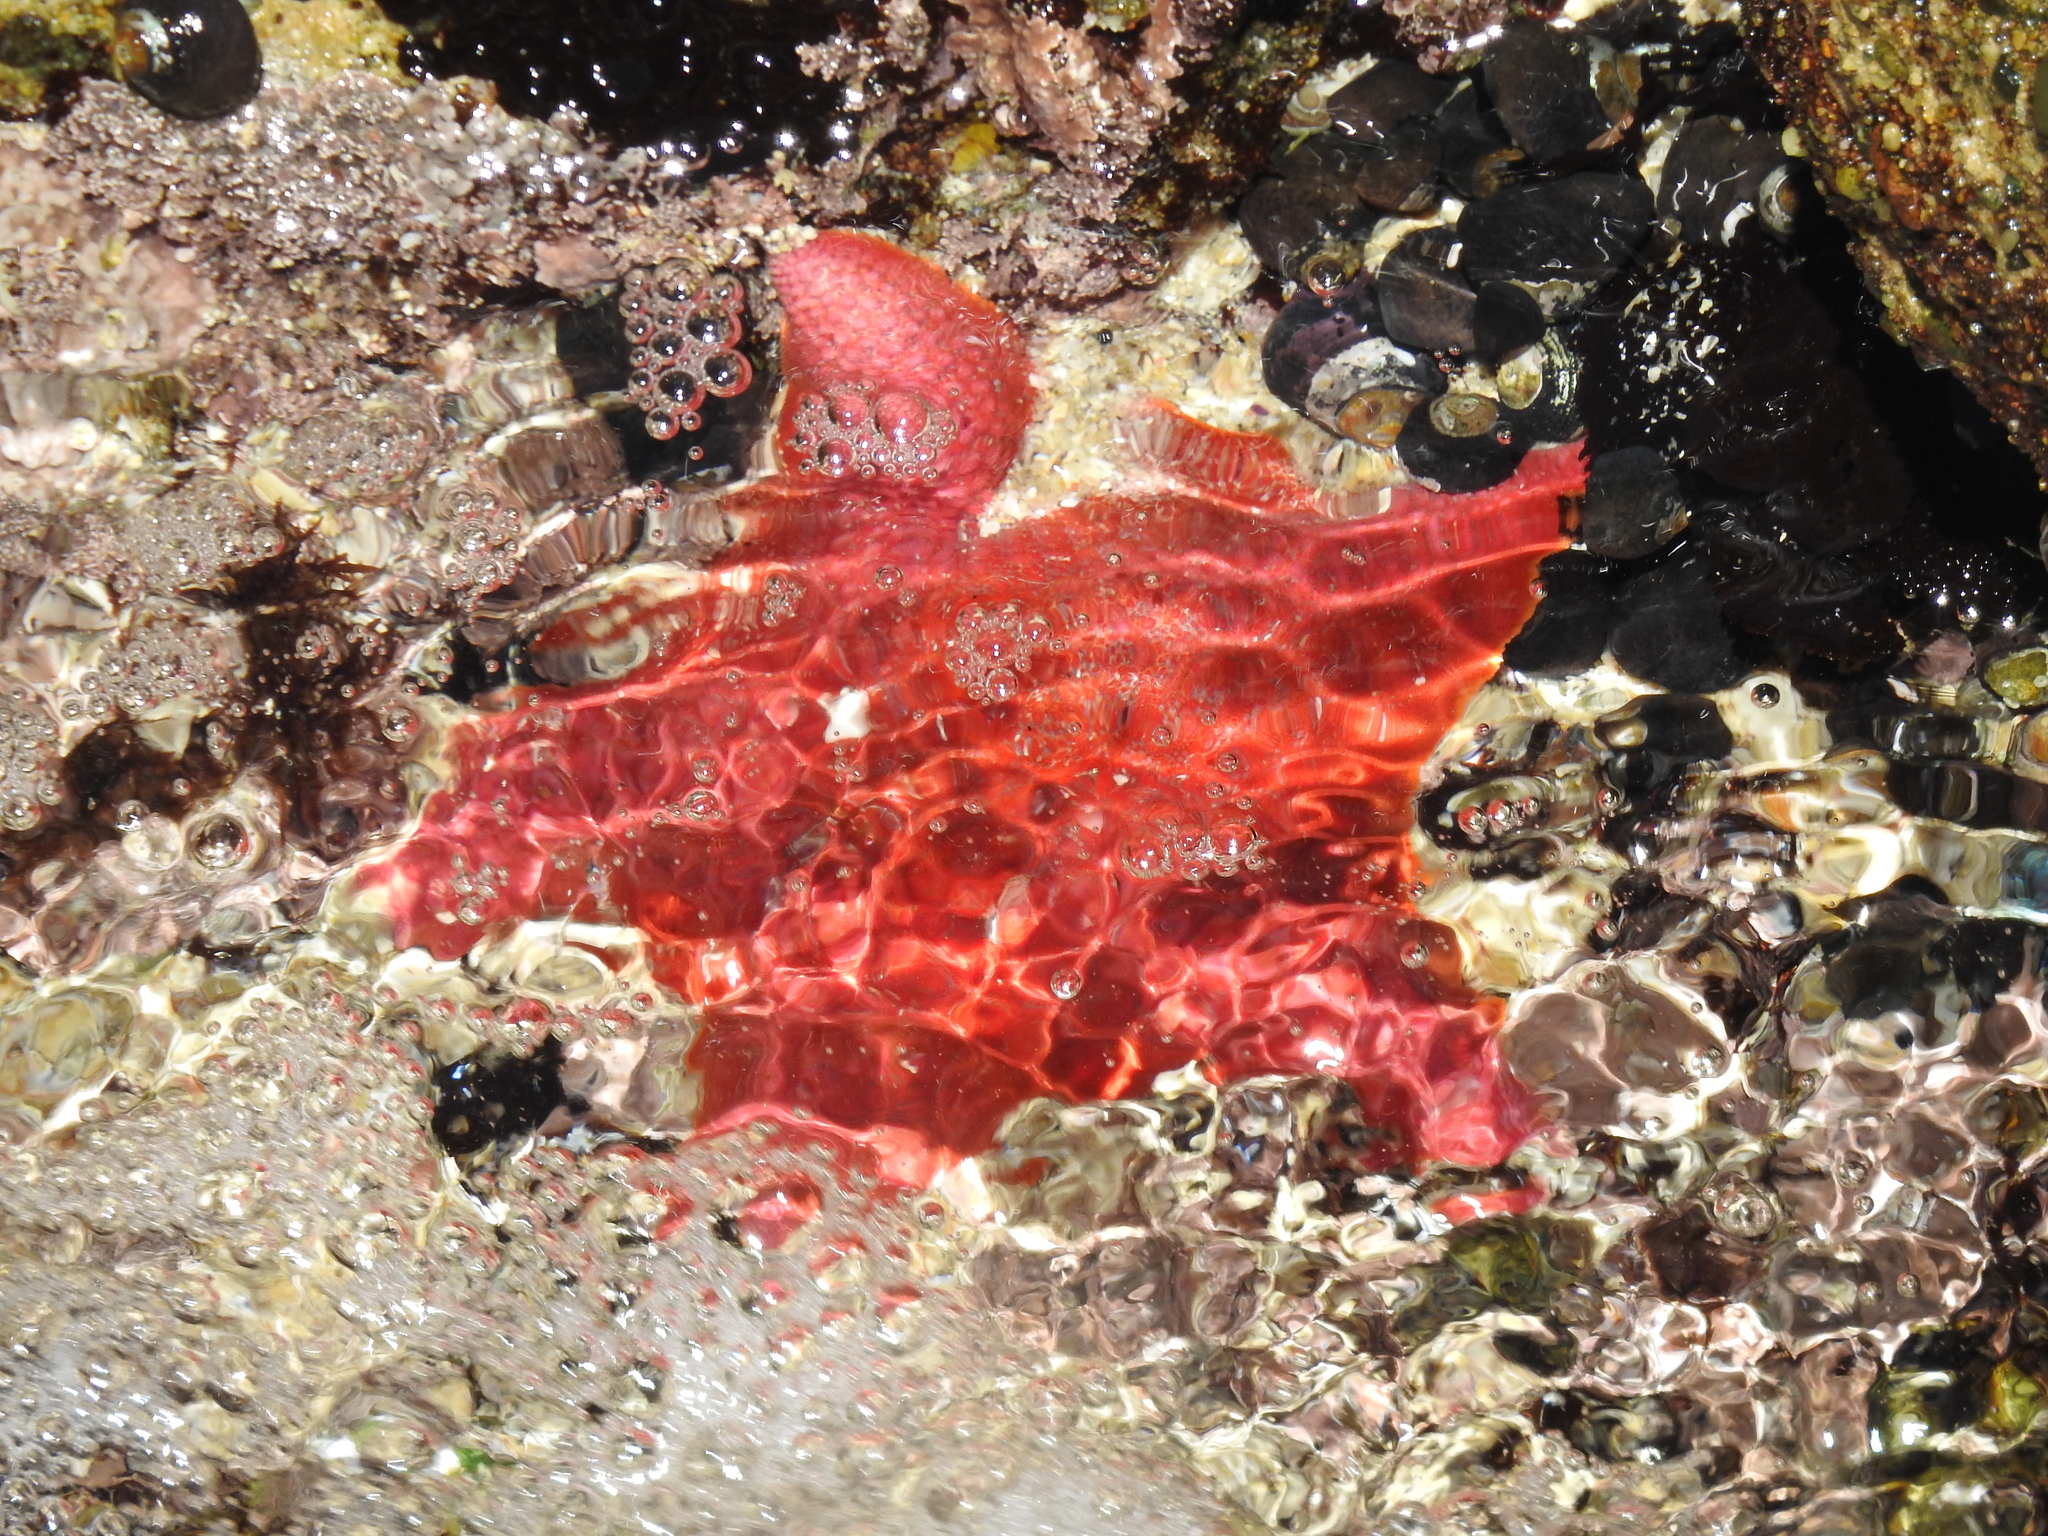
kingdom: Animalia
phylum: Echinodermata
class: Asteroidea
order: Valvatida
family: Asterinidae
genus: Patiria
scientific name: Patiria miniata
